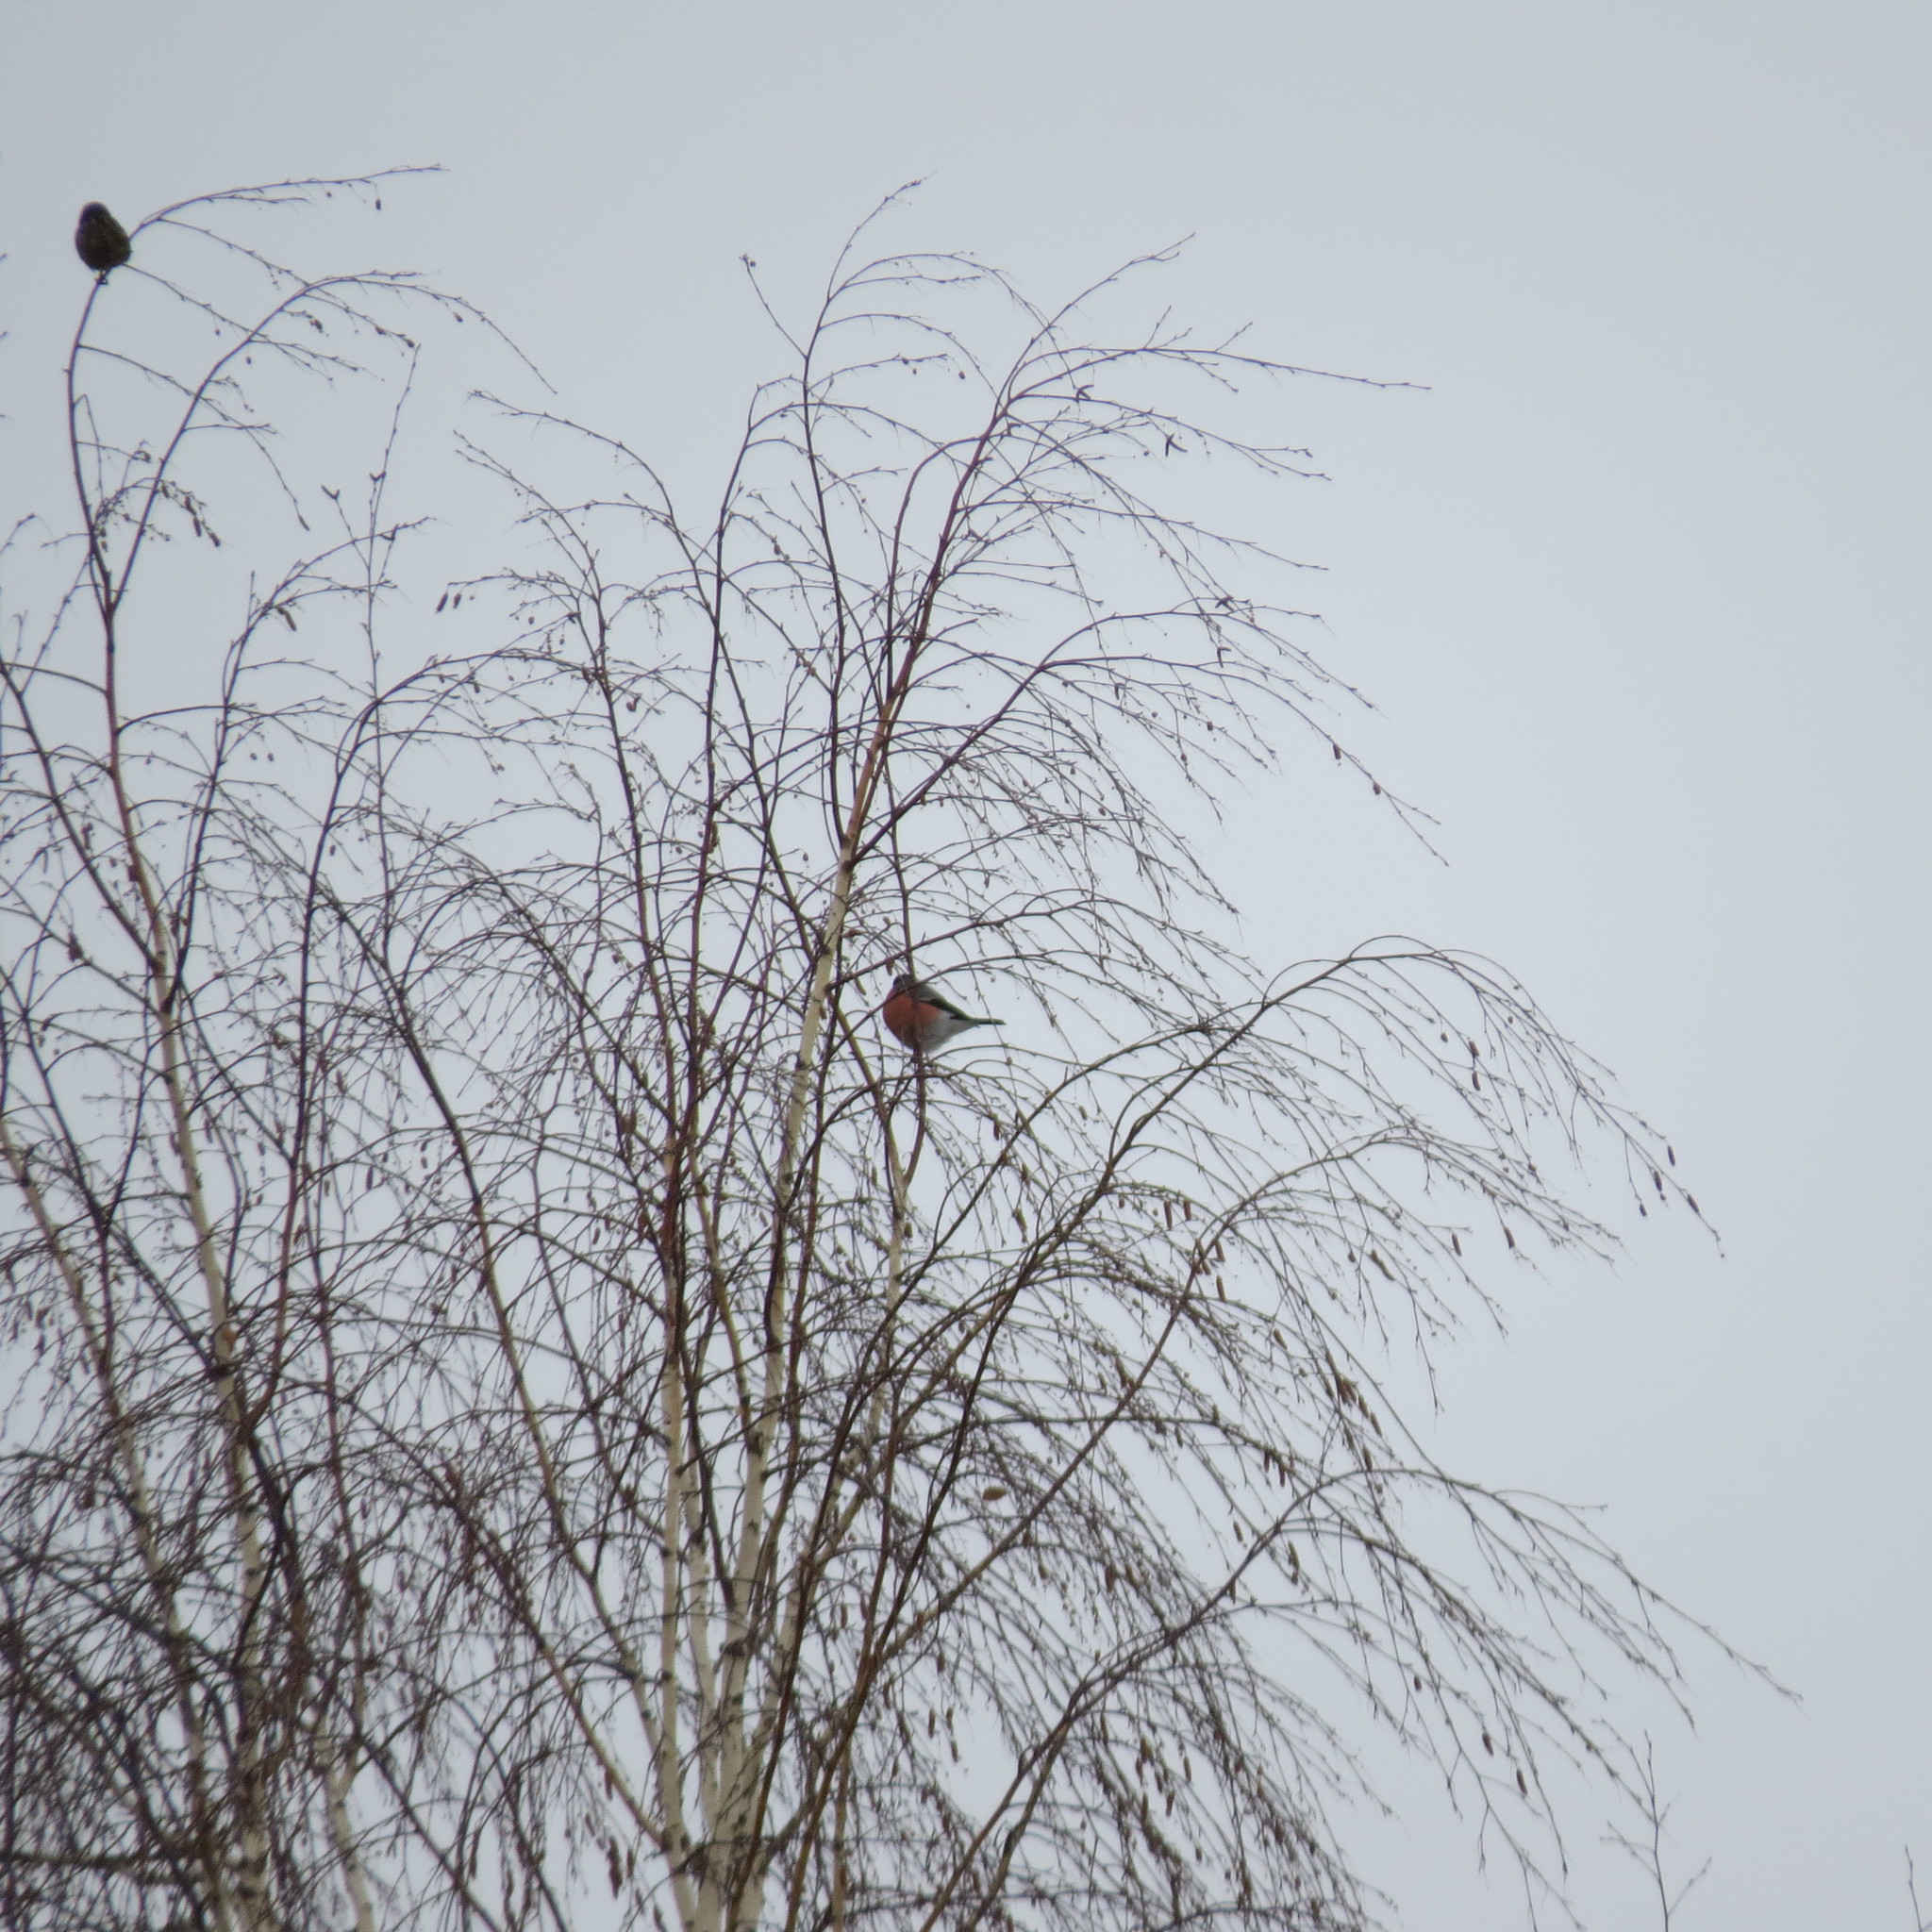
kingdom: Animalia
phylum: Chordata
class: Aves
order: Passeriformes
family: Fringillidae
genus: Pyrrhula
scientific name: Pyrrhula pyrrhula
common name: Eurasian bullfinch
